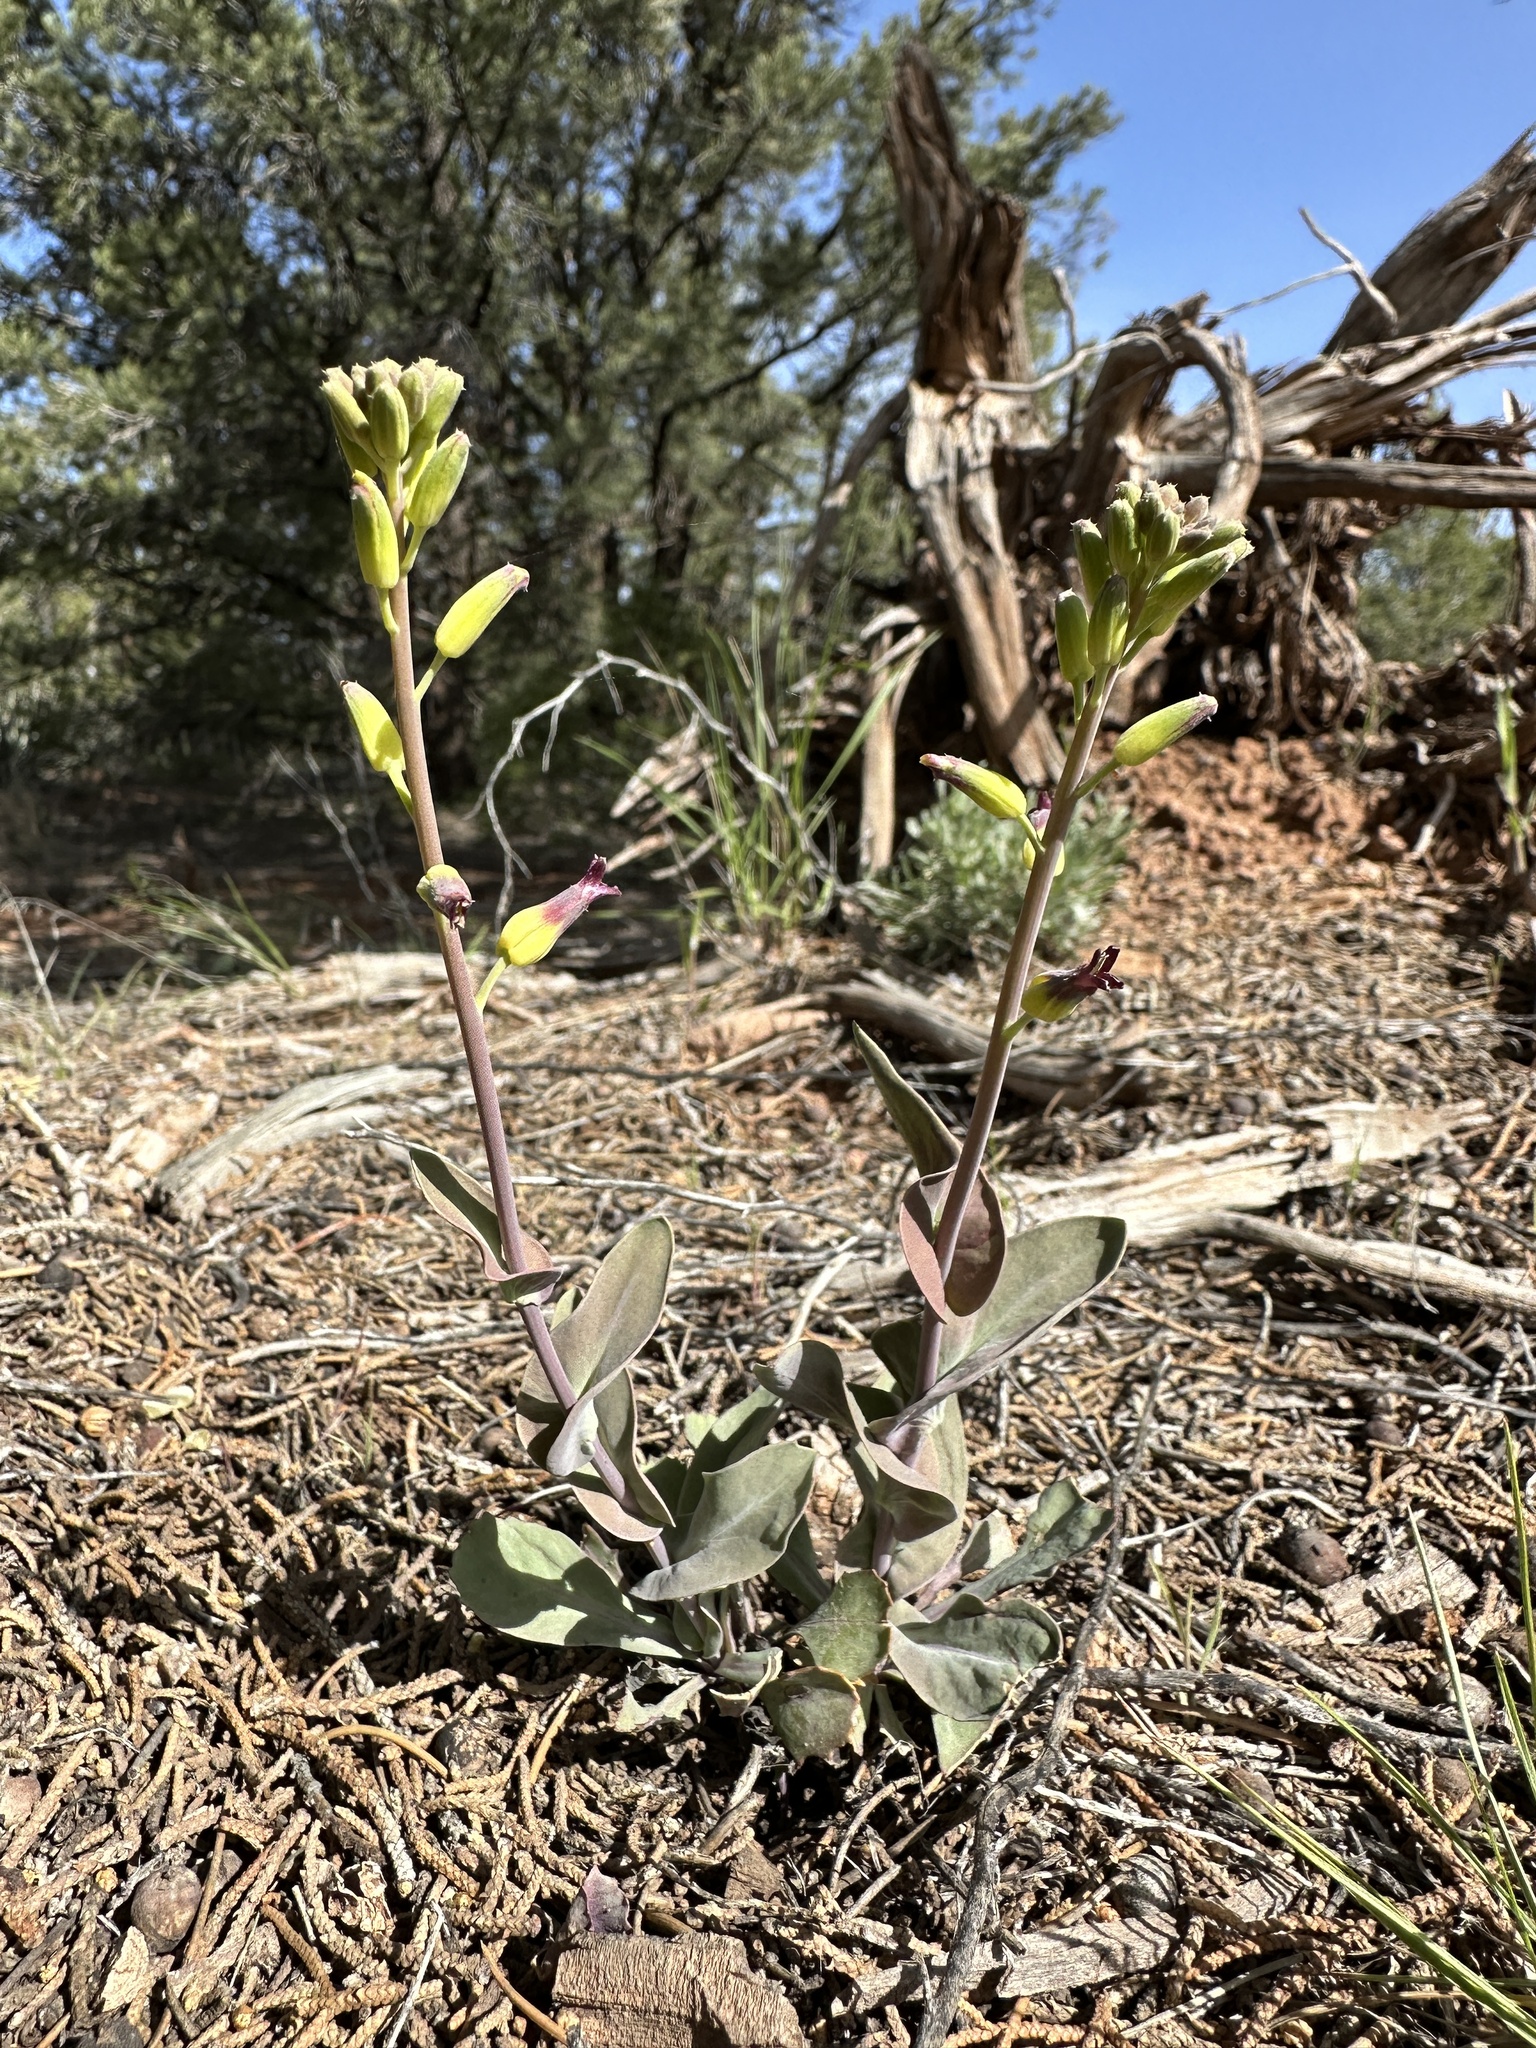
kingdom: Plantae
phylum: Tracheophyta
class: Magnoliopsida
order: Brassicales
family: Brassicaceae
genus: Streptanthus
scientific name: Streptanthus cordatus
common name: Heart-leaf jewel-flower
